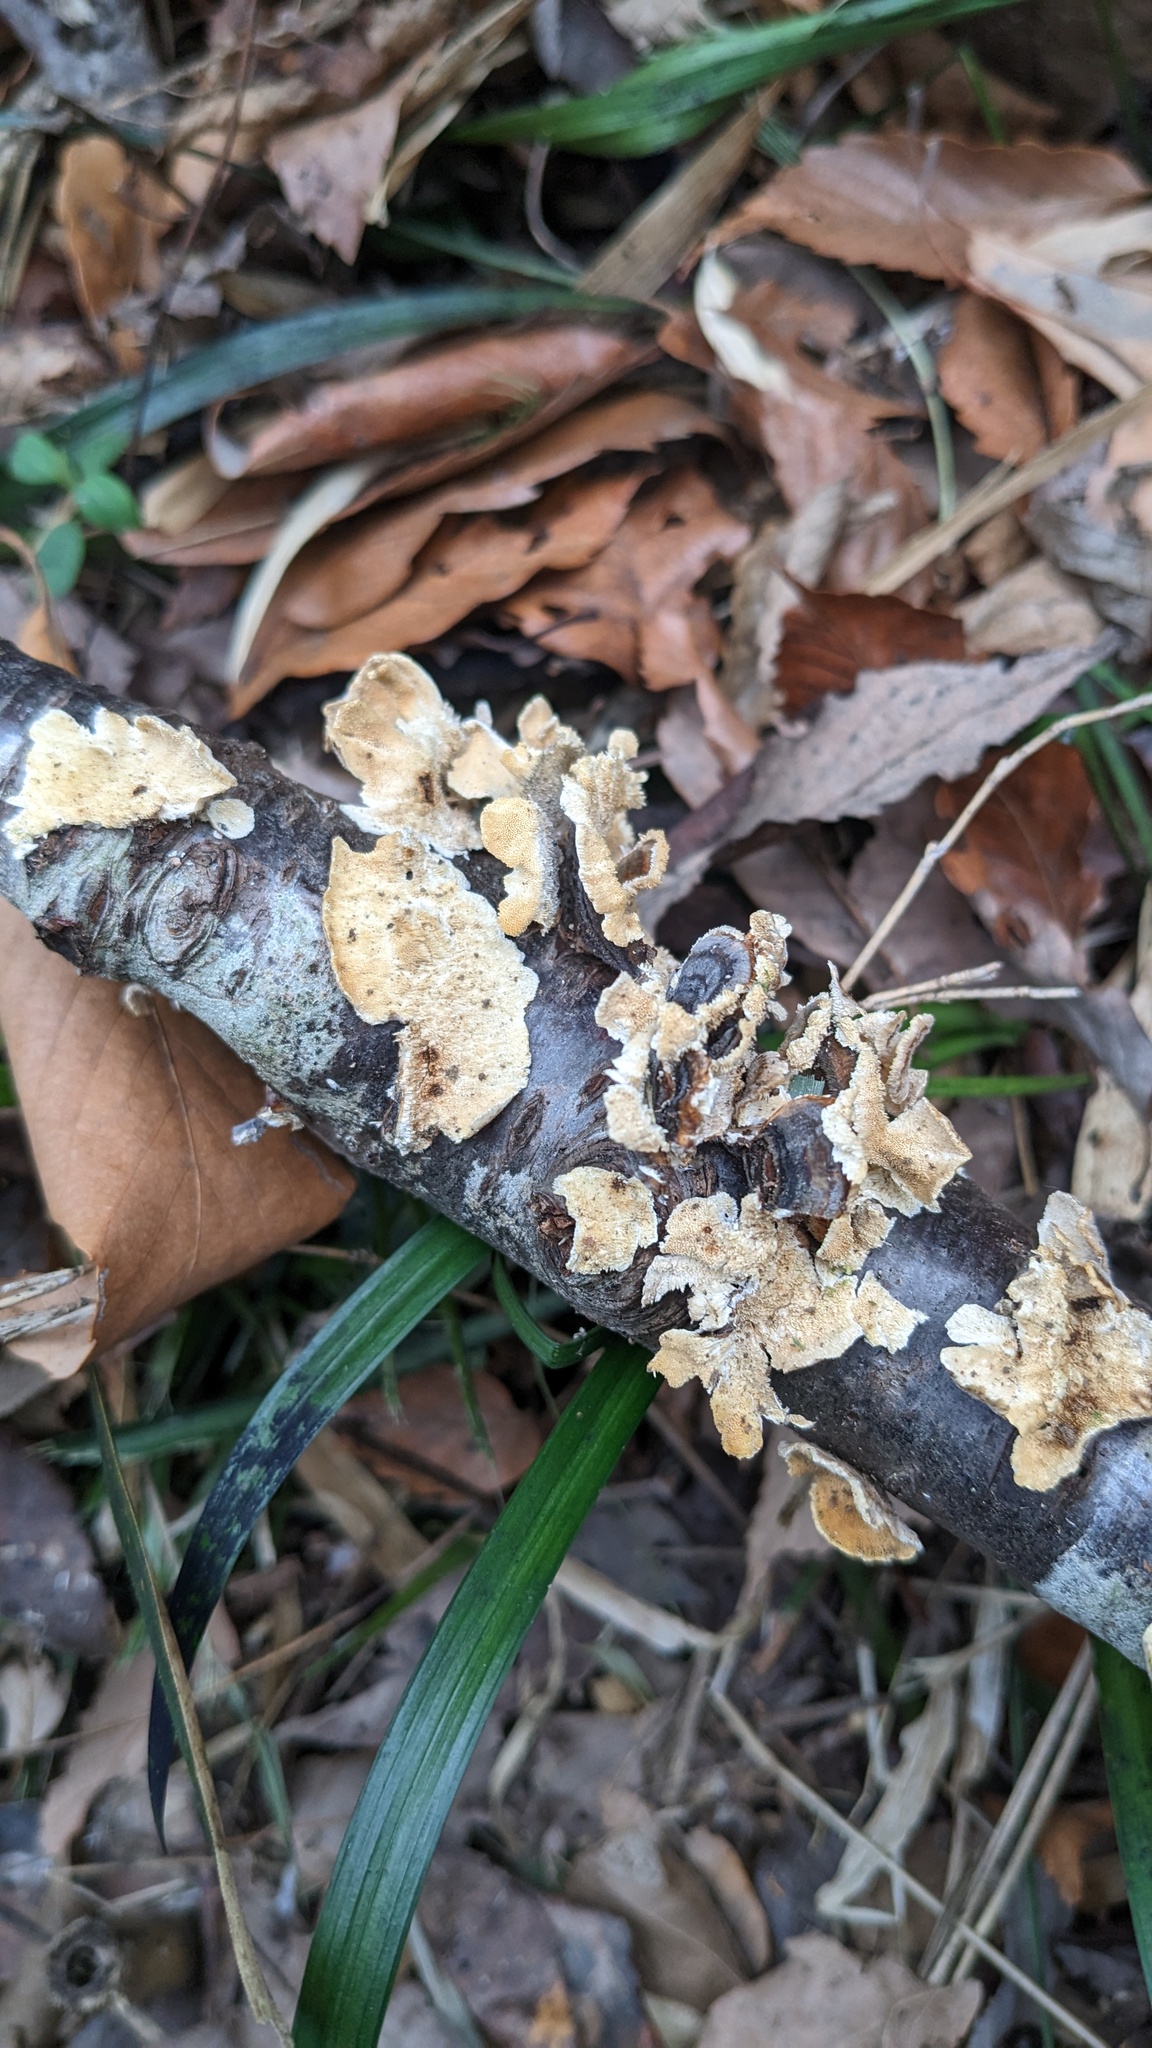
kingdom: Fungi
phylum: Basidiomycota
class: Agaricomycetes
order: Polyporales
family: Polyporaceae
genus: Trametes
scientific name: Trametes versicolor
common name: Turkeytail
